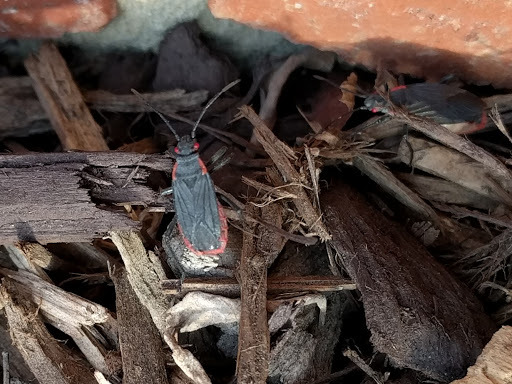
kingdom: Animalia
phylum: Arthropoda
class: Insecta
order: Hemiptera
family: Rhopalidae
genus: Jadera
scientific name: Jadera haematoloma
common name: Red-shouldered bug
